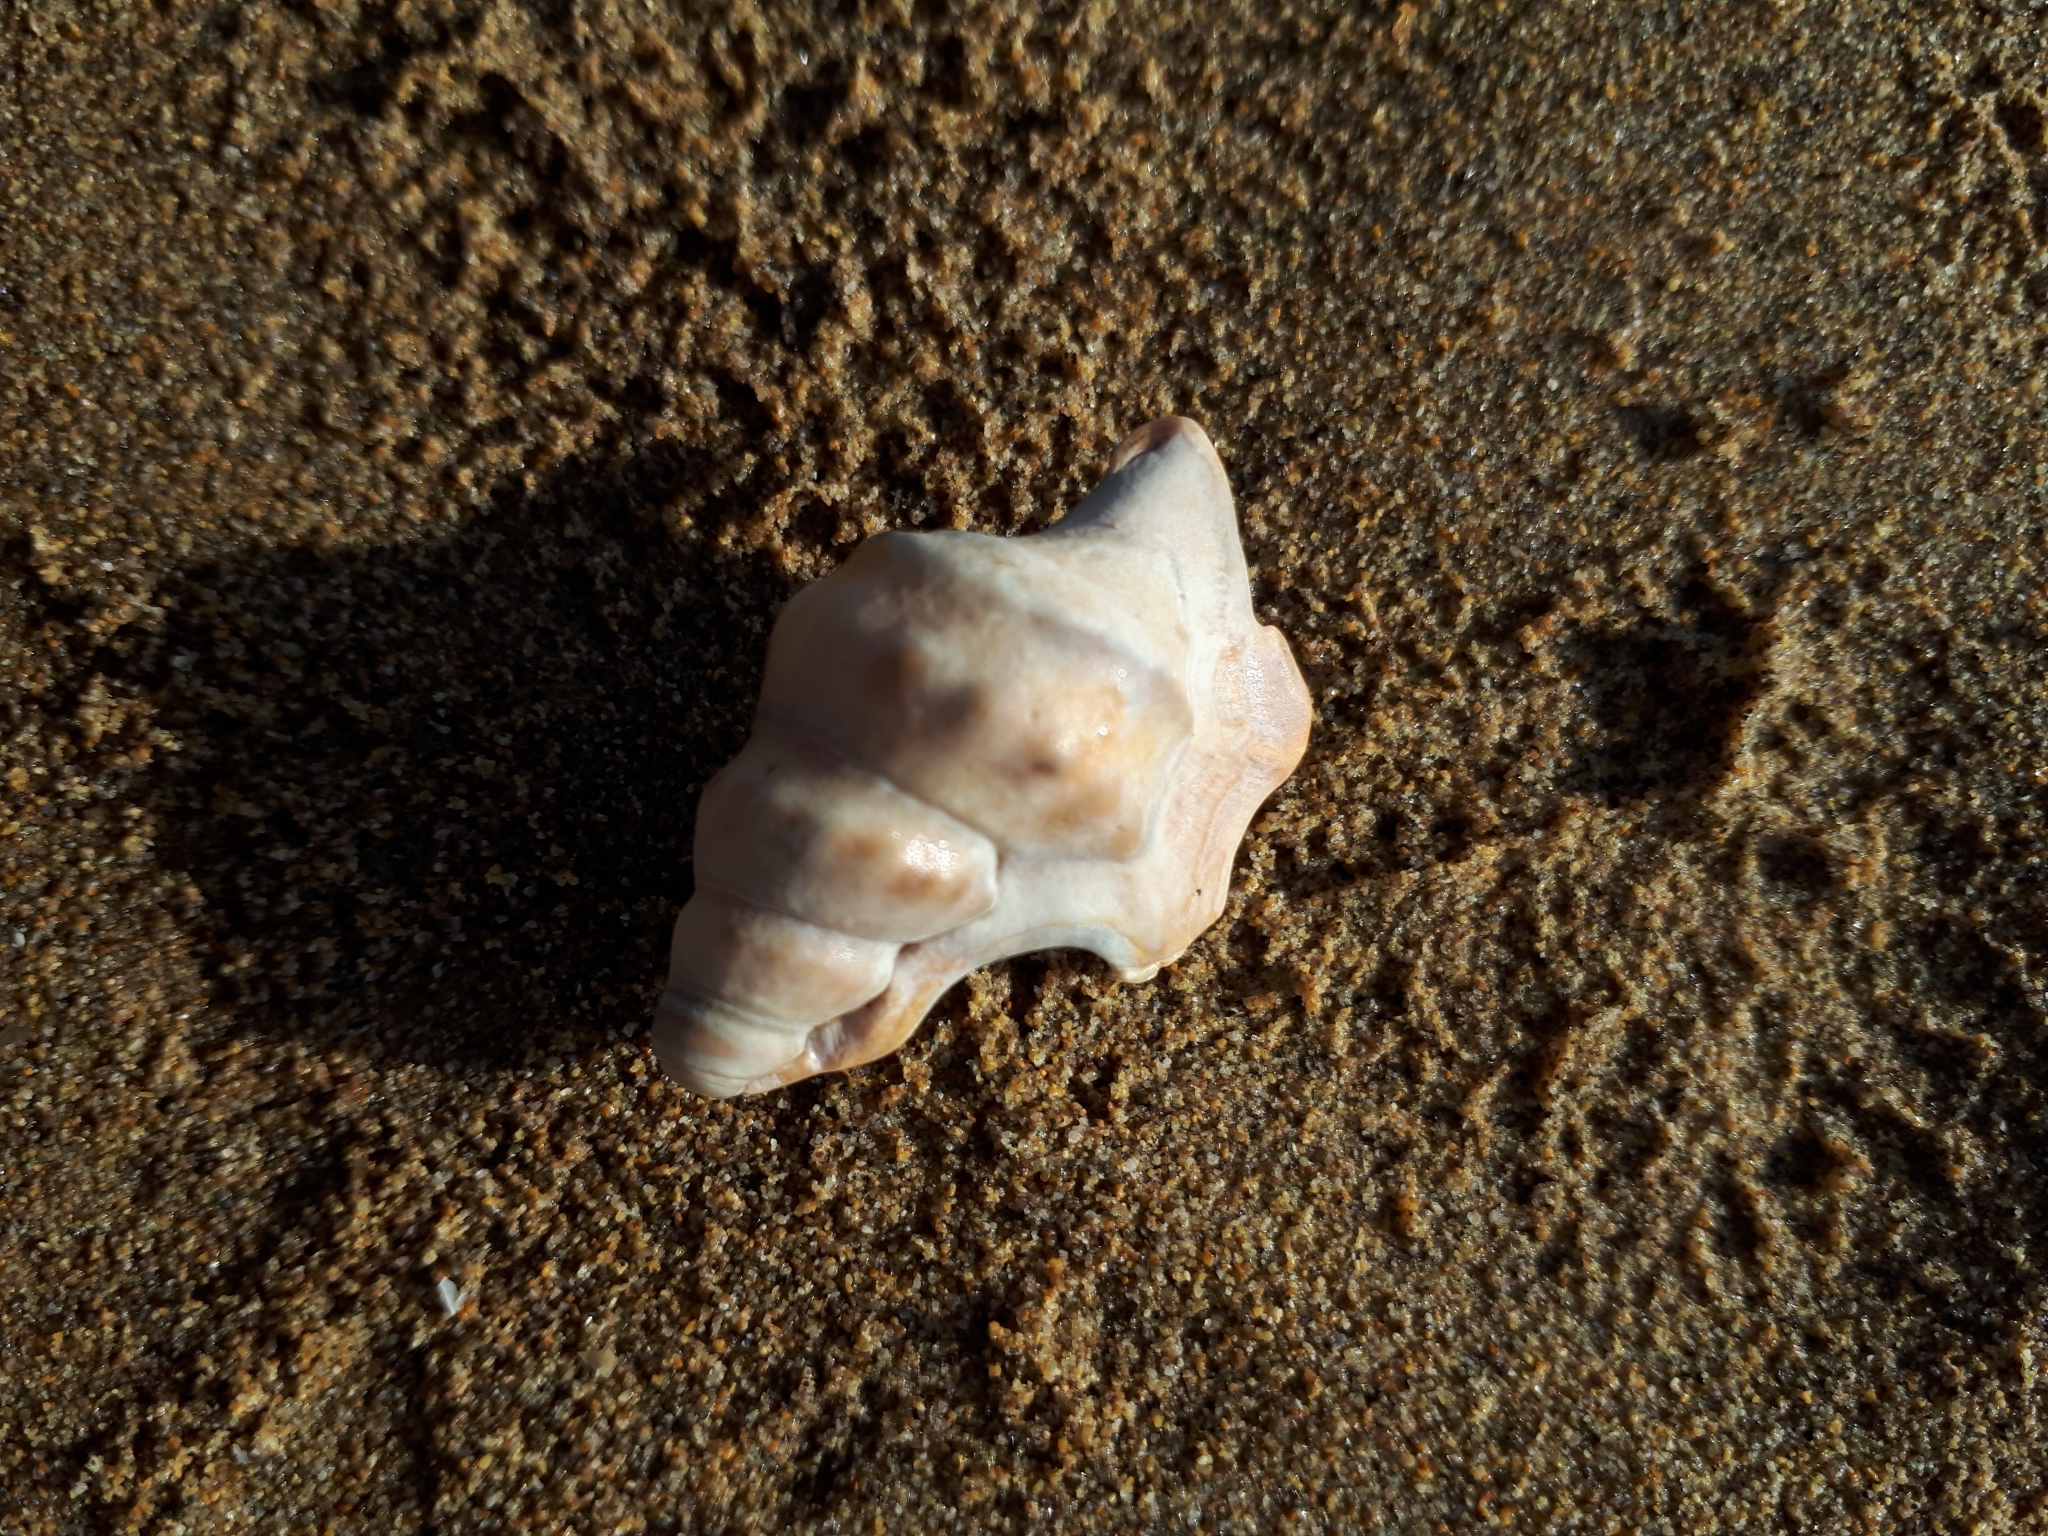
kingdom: Animalia
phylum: Mollusca
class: Gastropoda
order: Littorinimorpha
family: Aporrhaidae
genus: Aporrhais
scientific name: Aporrhais pespelecani
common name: Common pelican’s foot
